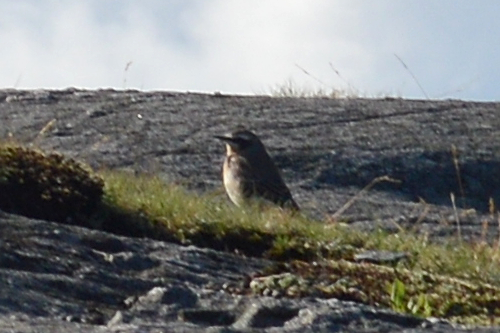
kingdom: Animalia
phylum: Chordata
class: Aves
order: Passeriformes
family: Muscicapidae
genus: Oenanthe
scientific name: Oenanthe oenanthe
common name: Northern wheatear
